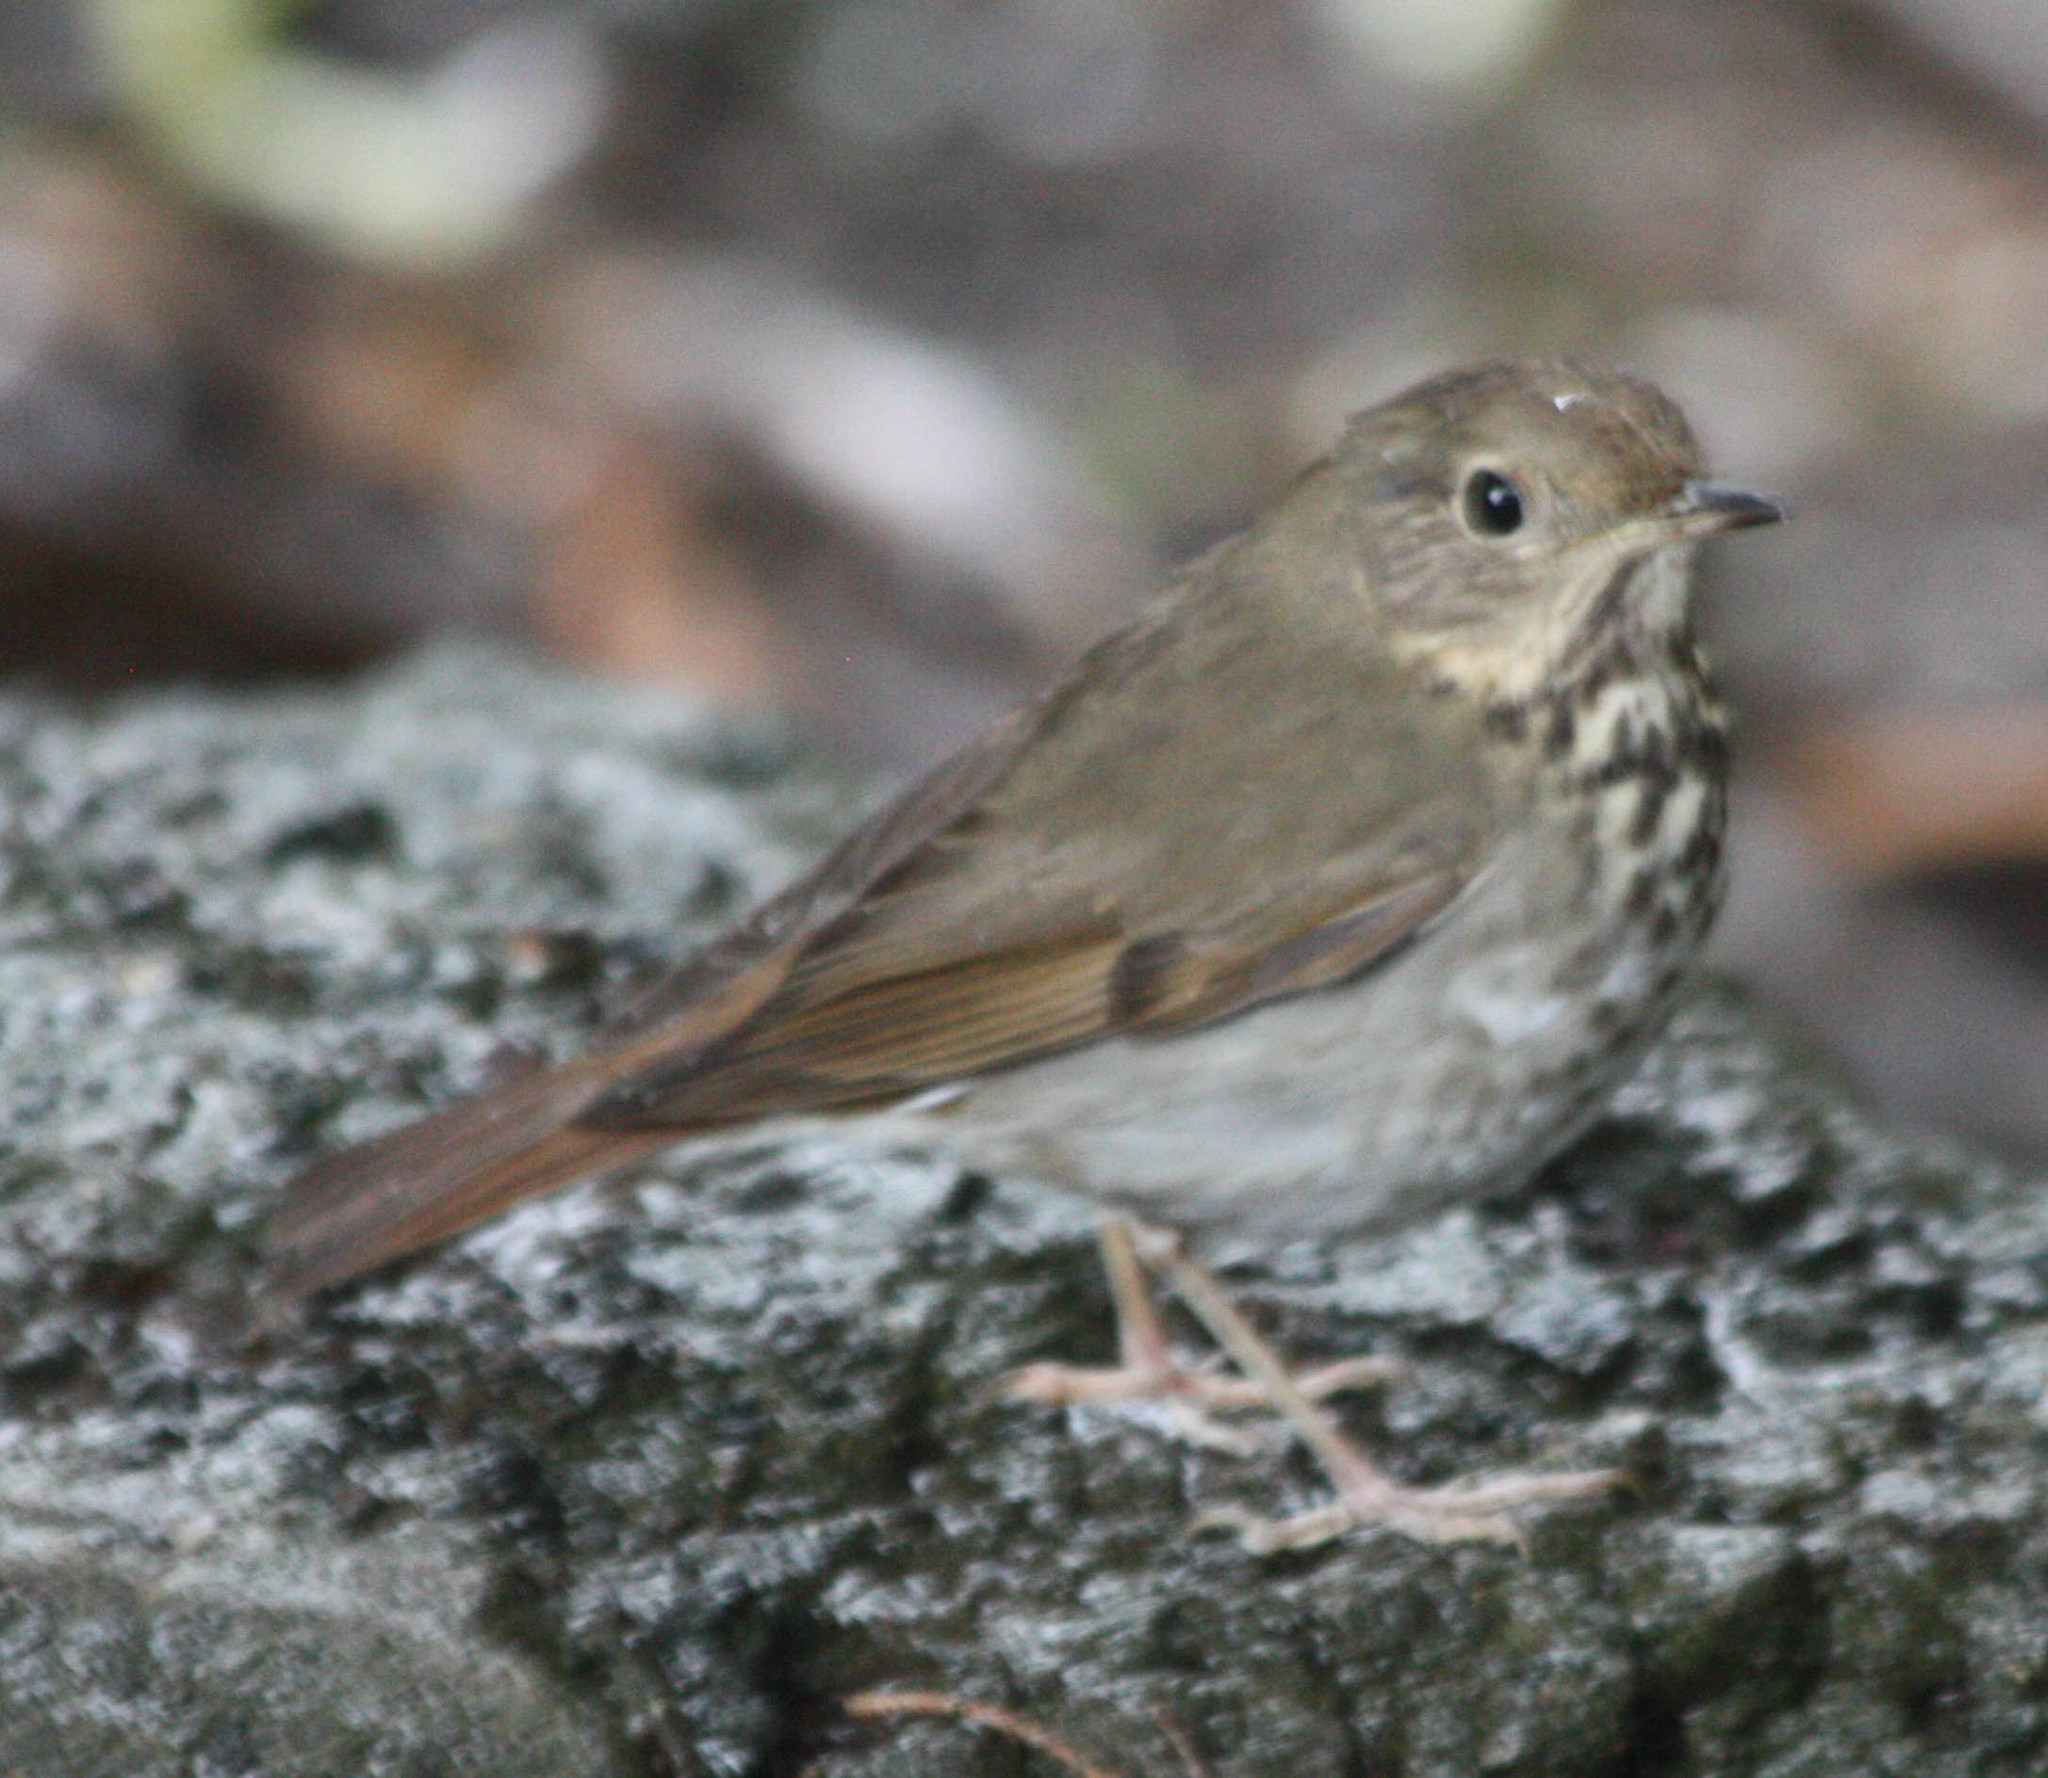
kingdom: Animalia
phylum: Chordata
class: Aves
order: Passeriformes
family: Turdidae
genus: Catharus
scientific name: Catharus guttatus
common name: Hermit thrush
